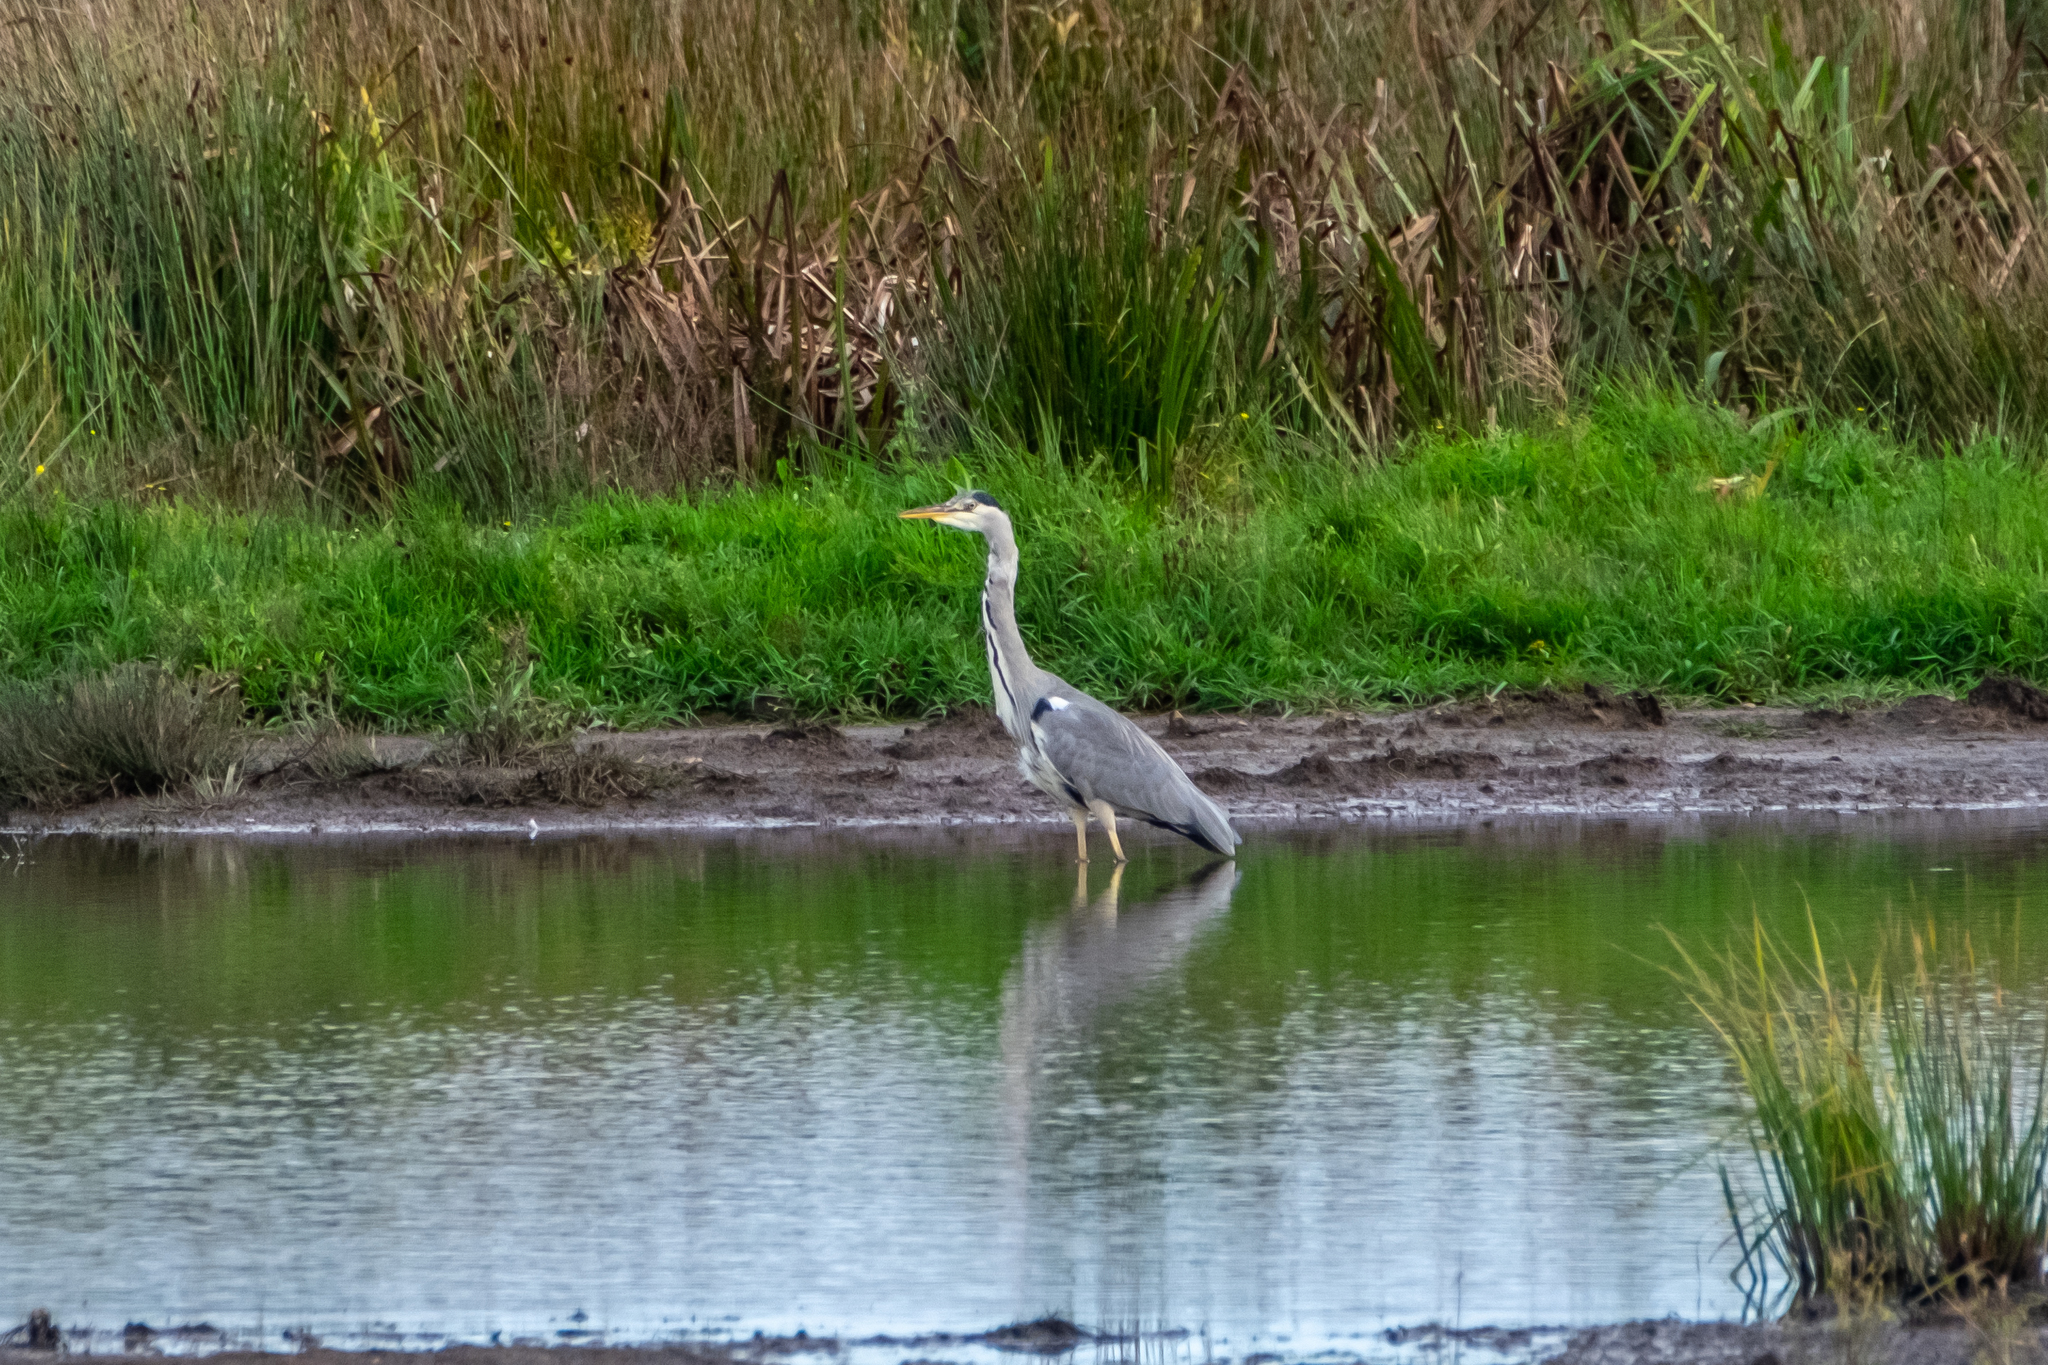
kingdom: Animalia
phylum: Chordata
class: Aves
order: Pelecaniformes
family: Ardeidae
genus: Ardea
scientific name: Ardea cinerea
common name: Grey heron
